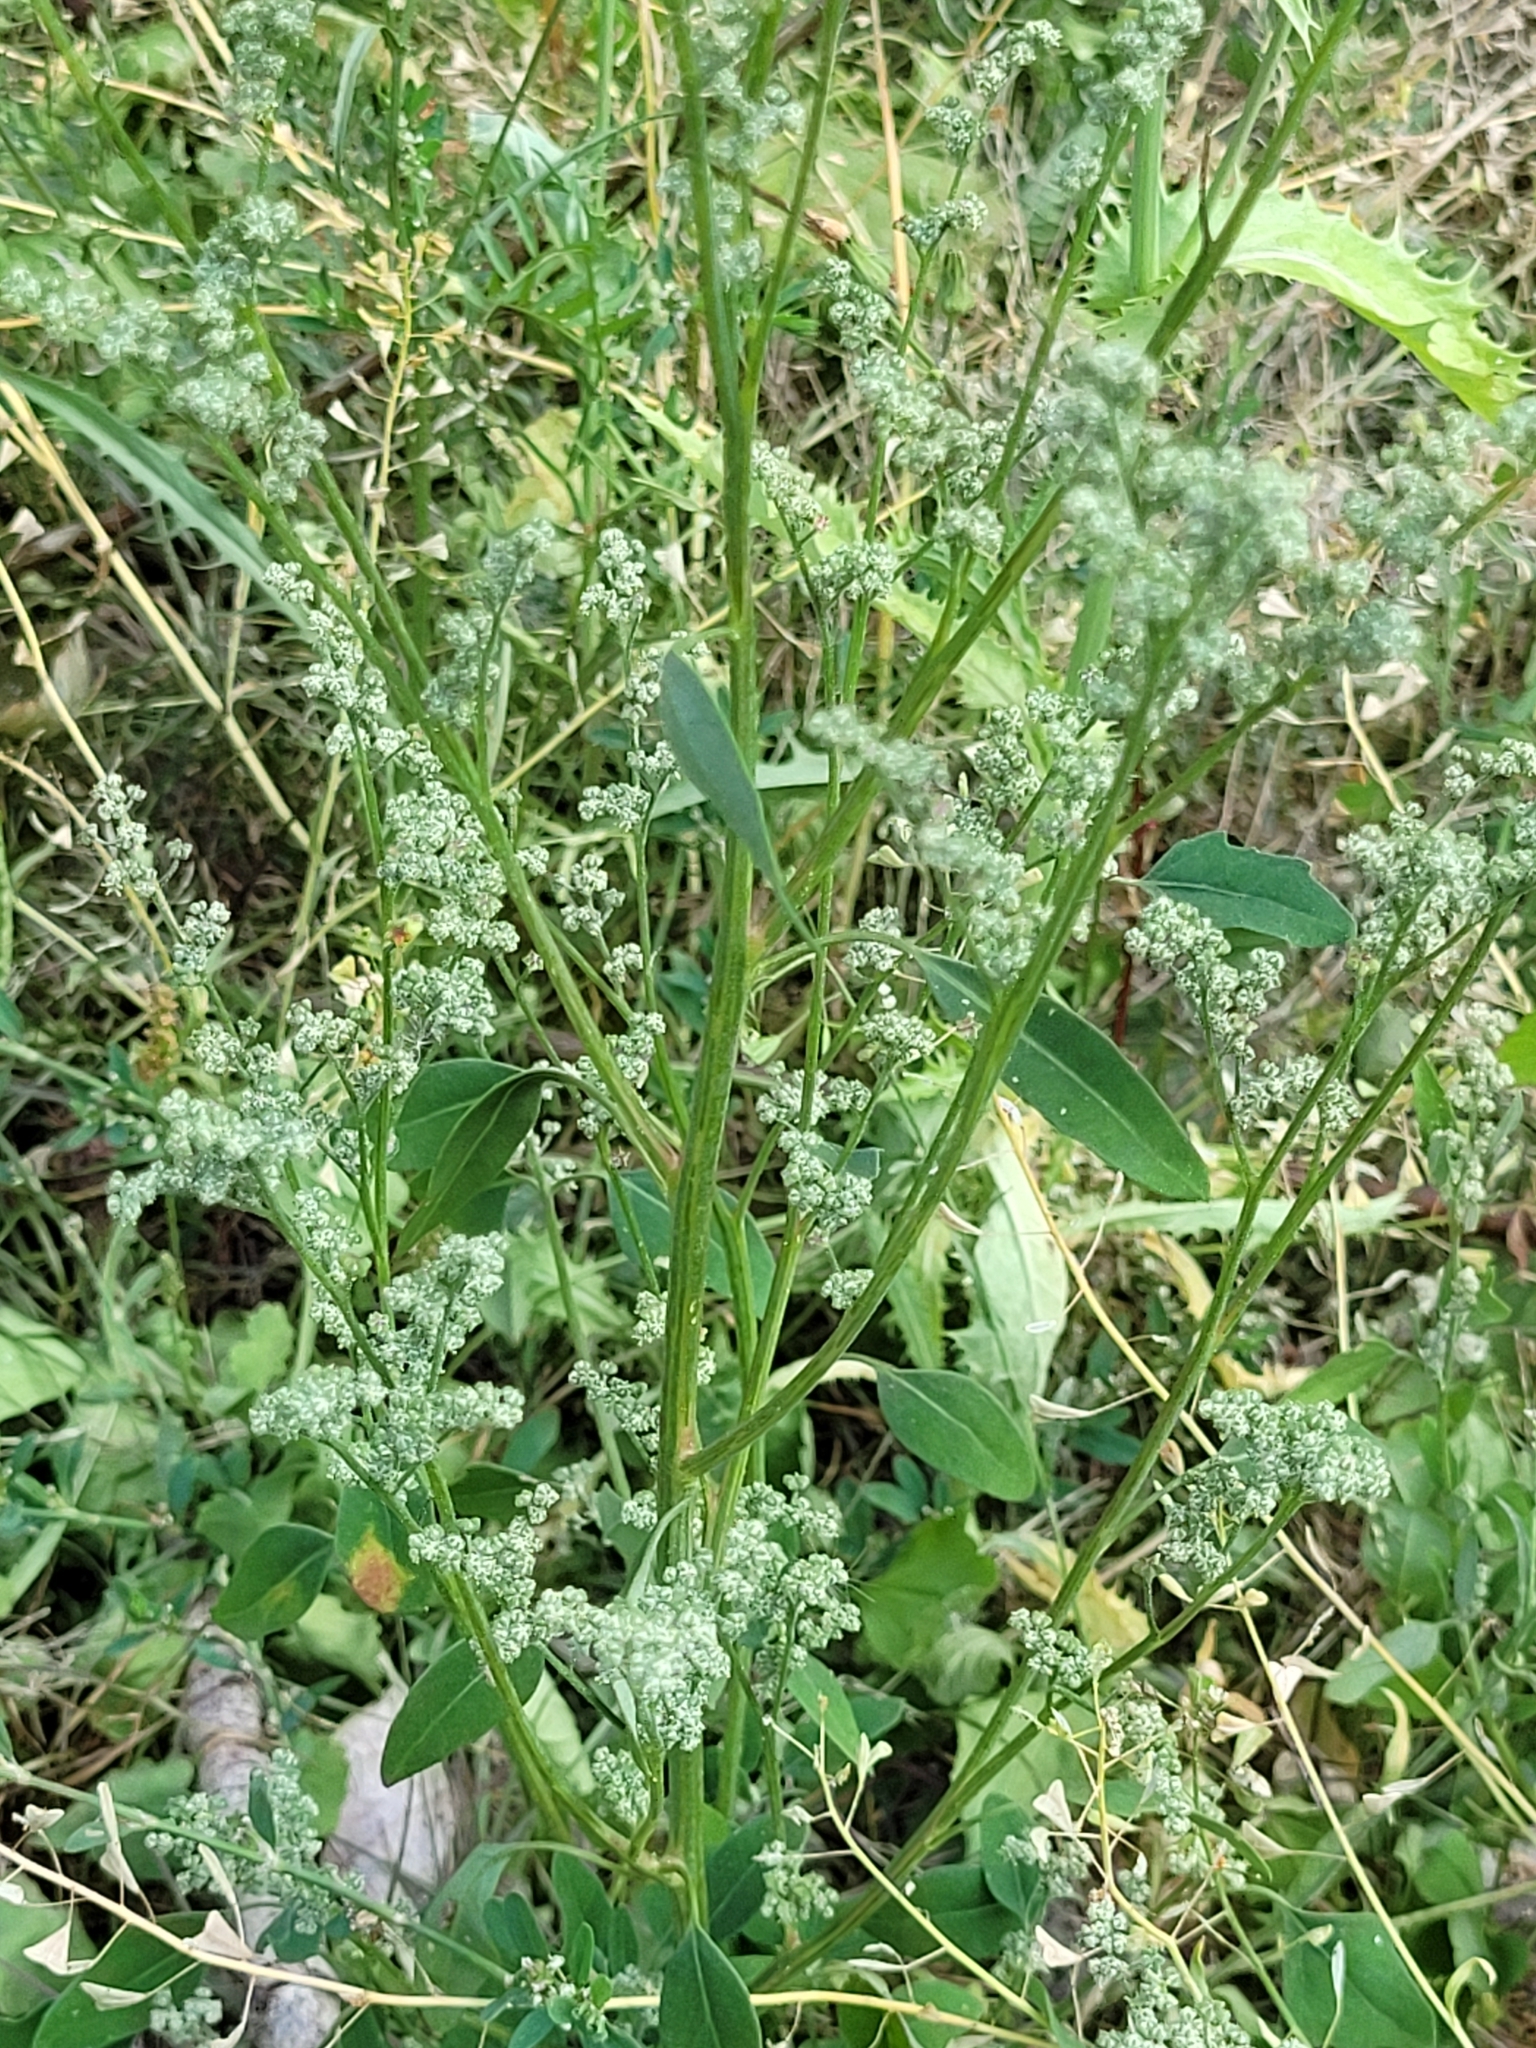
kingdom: Plantae
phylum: Tracheophyta
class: Magnoliopsida
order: Caryophyllales
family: Amaranthaceae
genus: Chenopodium
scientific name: Chenopodium album
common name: Fat-hen
